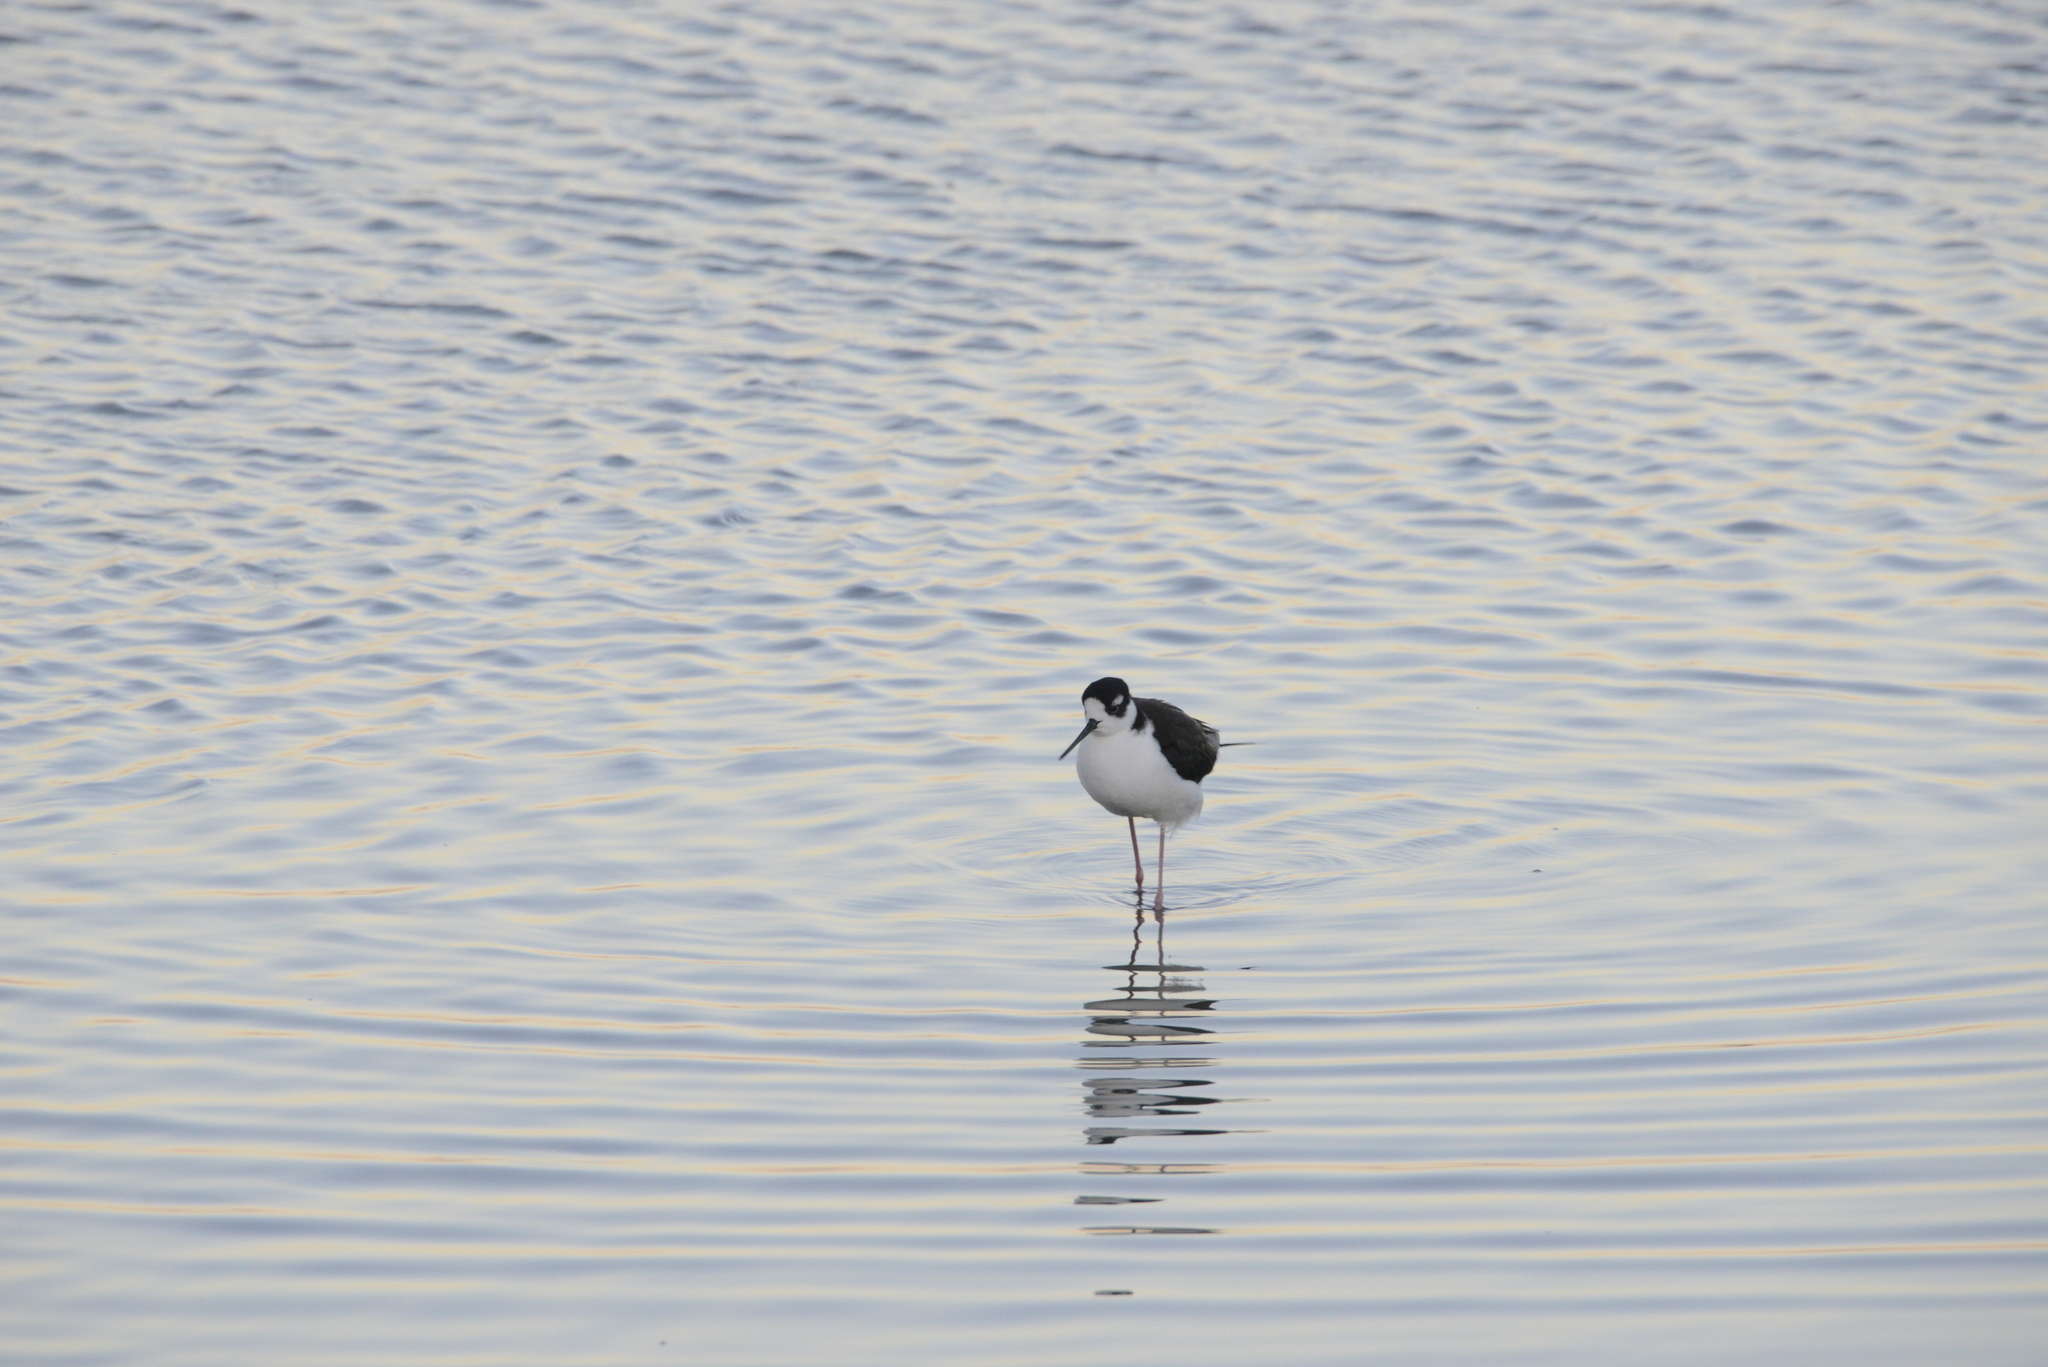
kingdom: Animalia
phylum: Chordata
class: Aves
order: Charadriiformes
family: Recurvirostridae
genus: Himantopus
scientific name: Himantopus mexicanus
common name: Black-necked stilt
